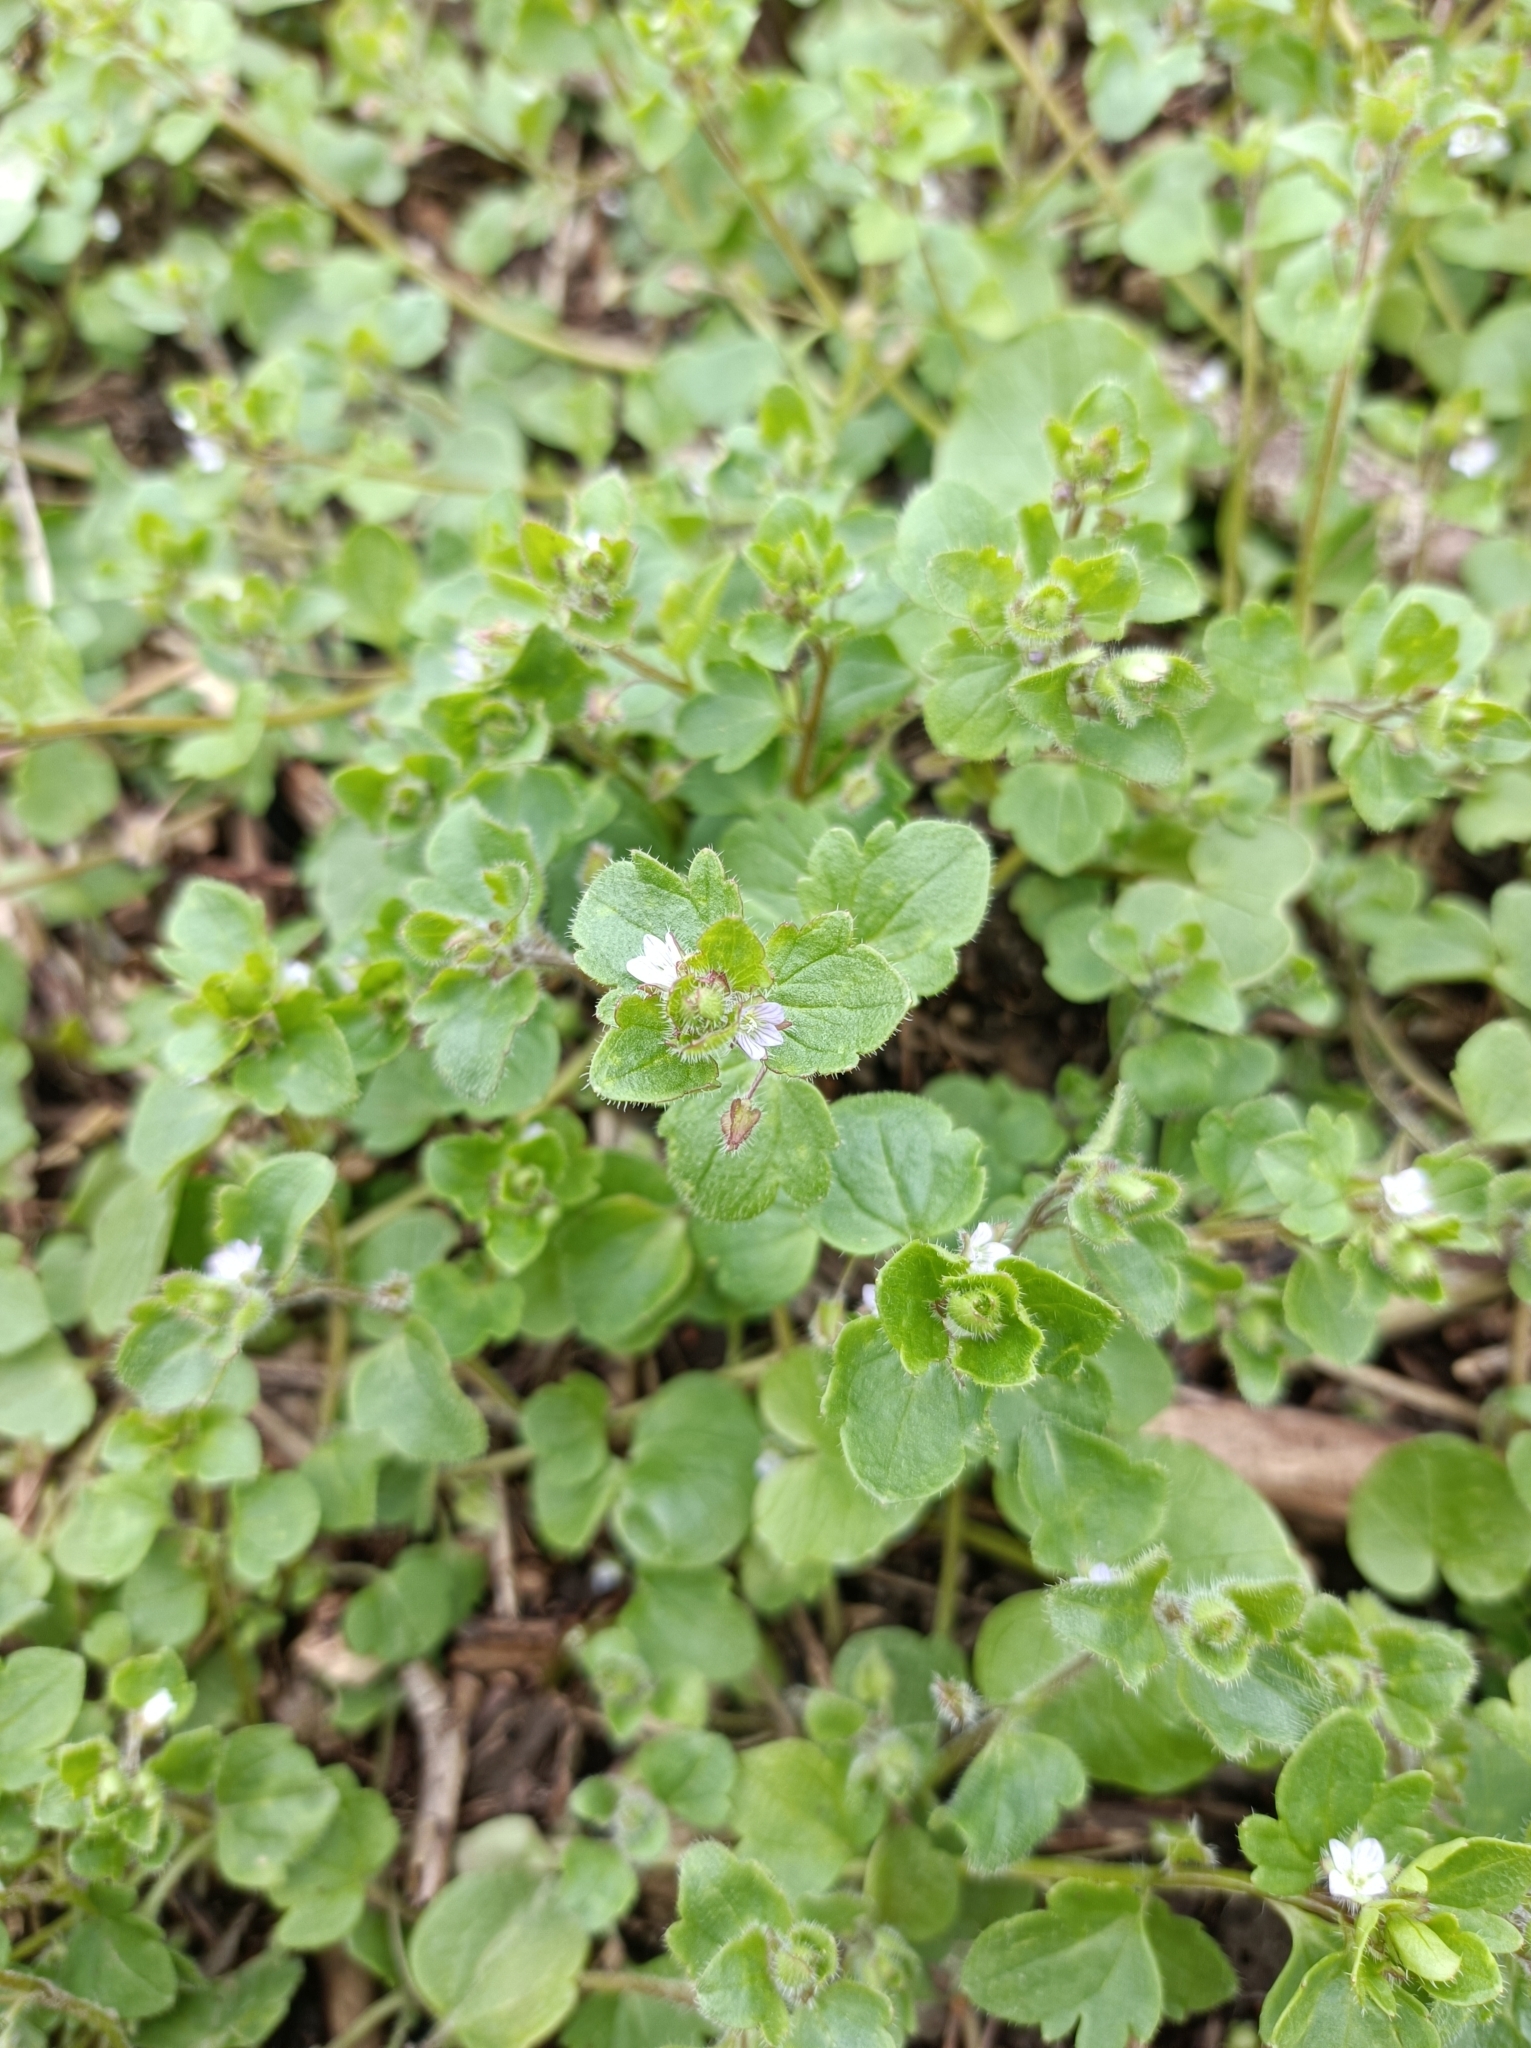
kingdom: Plantae
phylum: Tracheophyta
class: Magnoliopsida
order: Lamiales
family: Plantaginaceae
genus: Veronica
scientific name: Veronica sublobata
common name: False ivy-leaved speedwell
